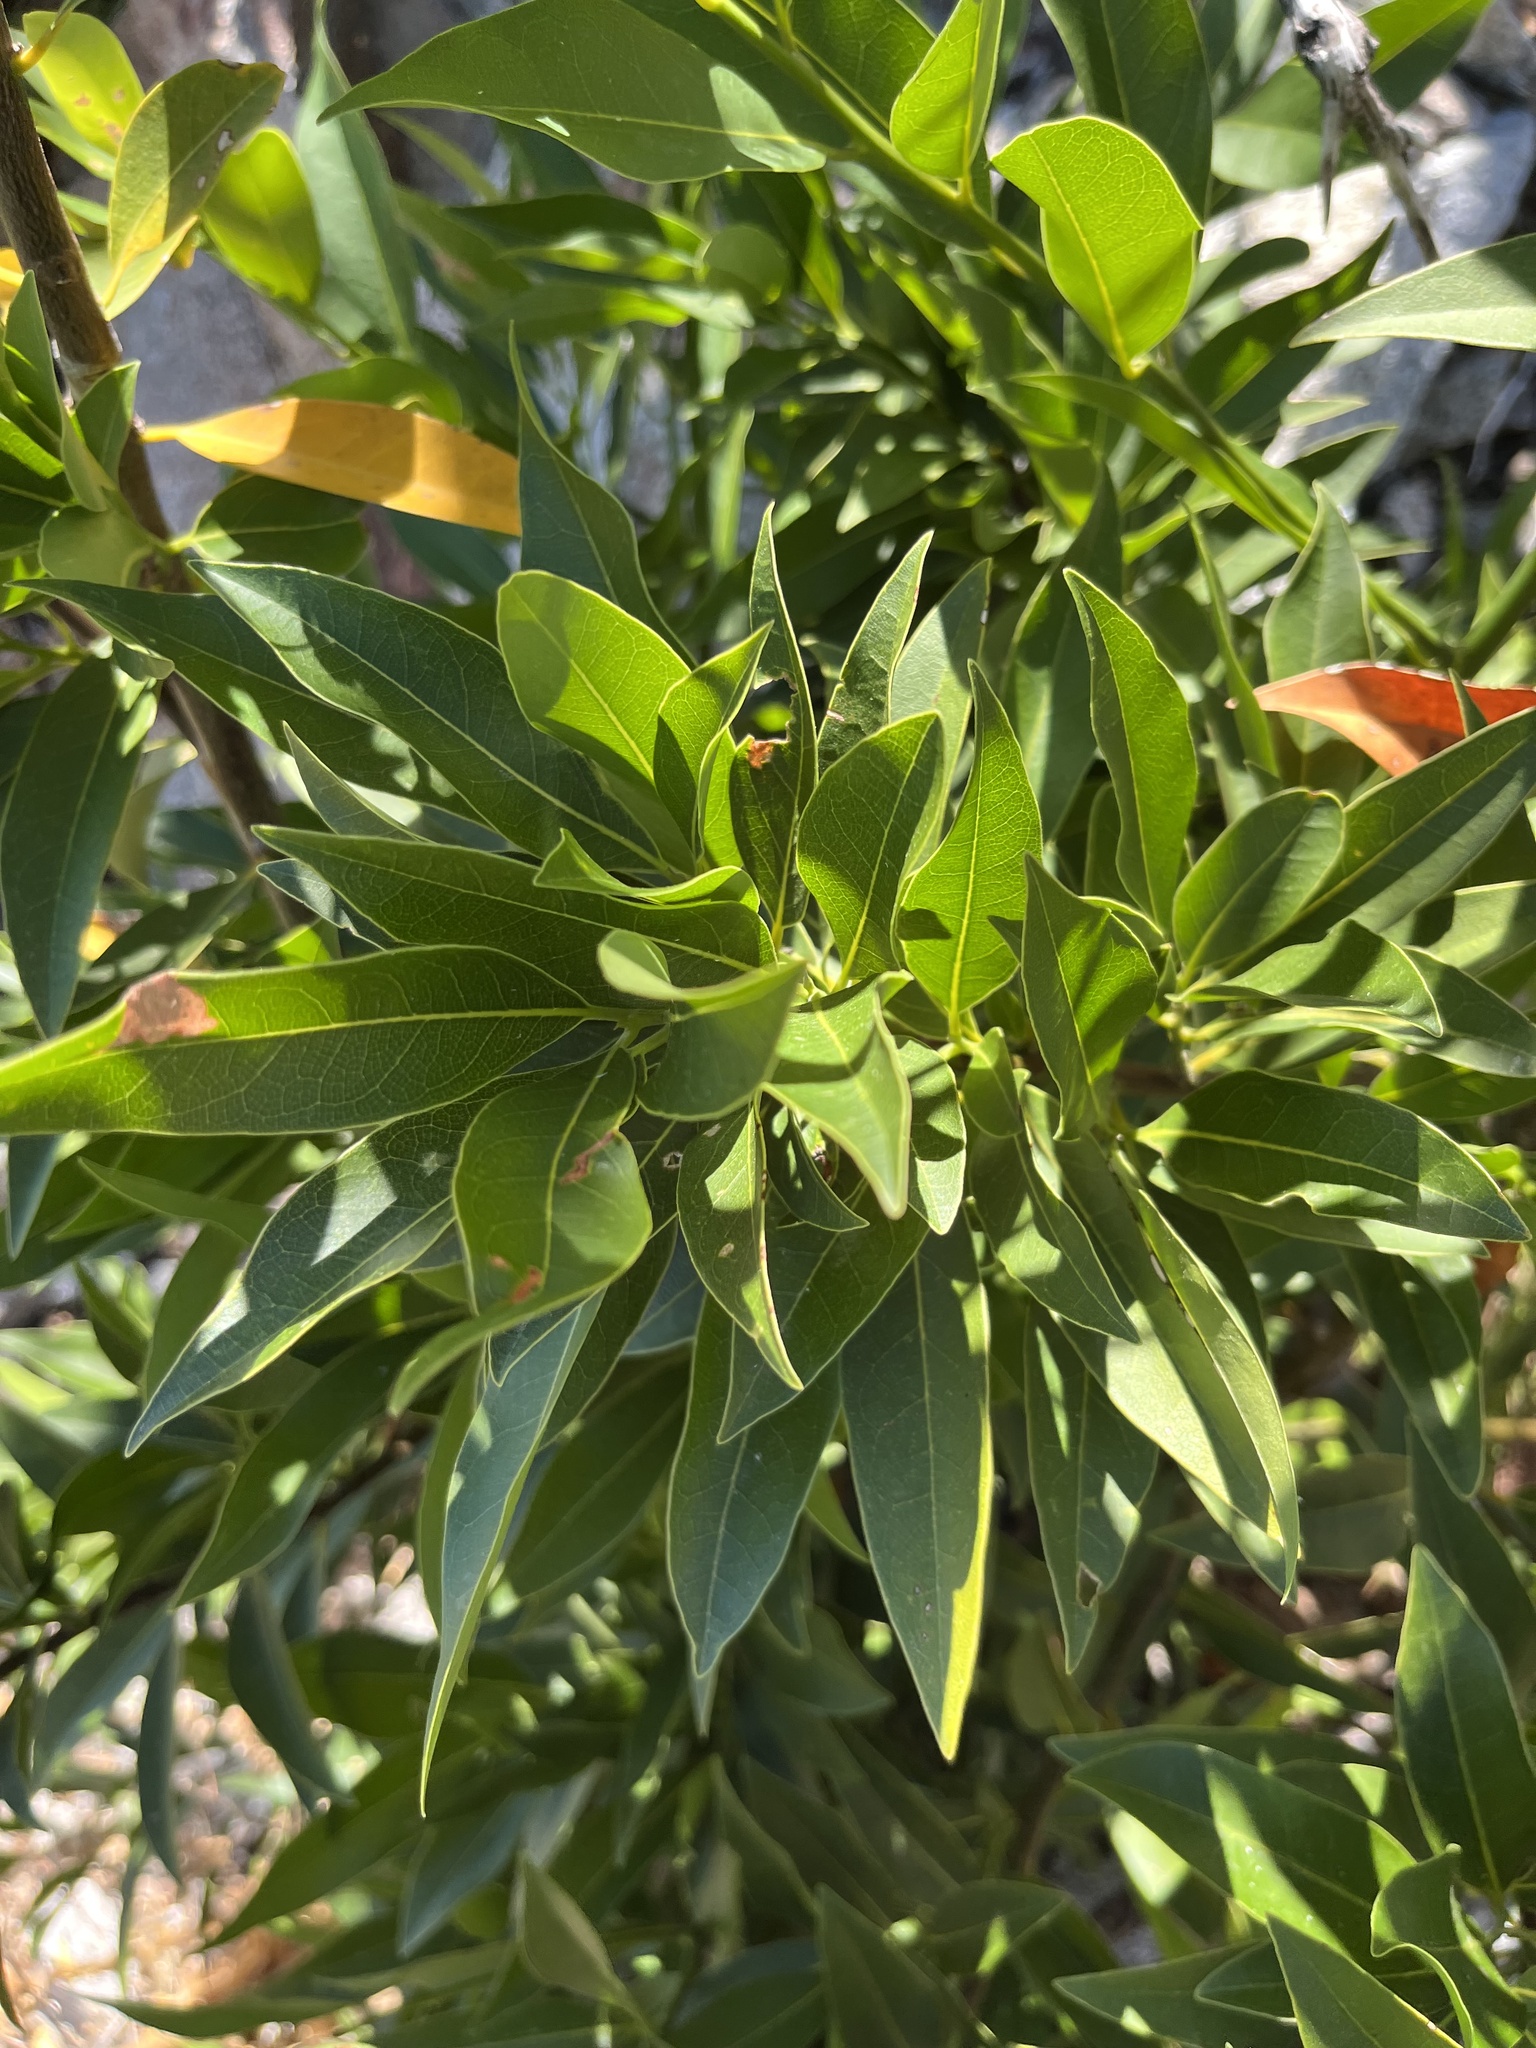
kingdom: Plantae
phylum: Tracheophyta
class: Magnoliopsida
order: Laurales
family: Lauraceae
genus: Umbellularia
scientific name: Umbellularia californica
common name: California bay
